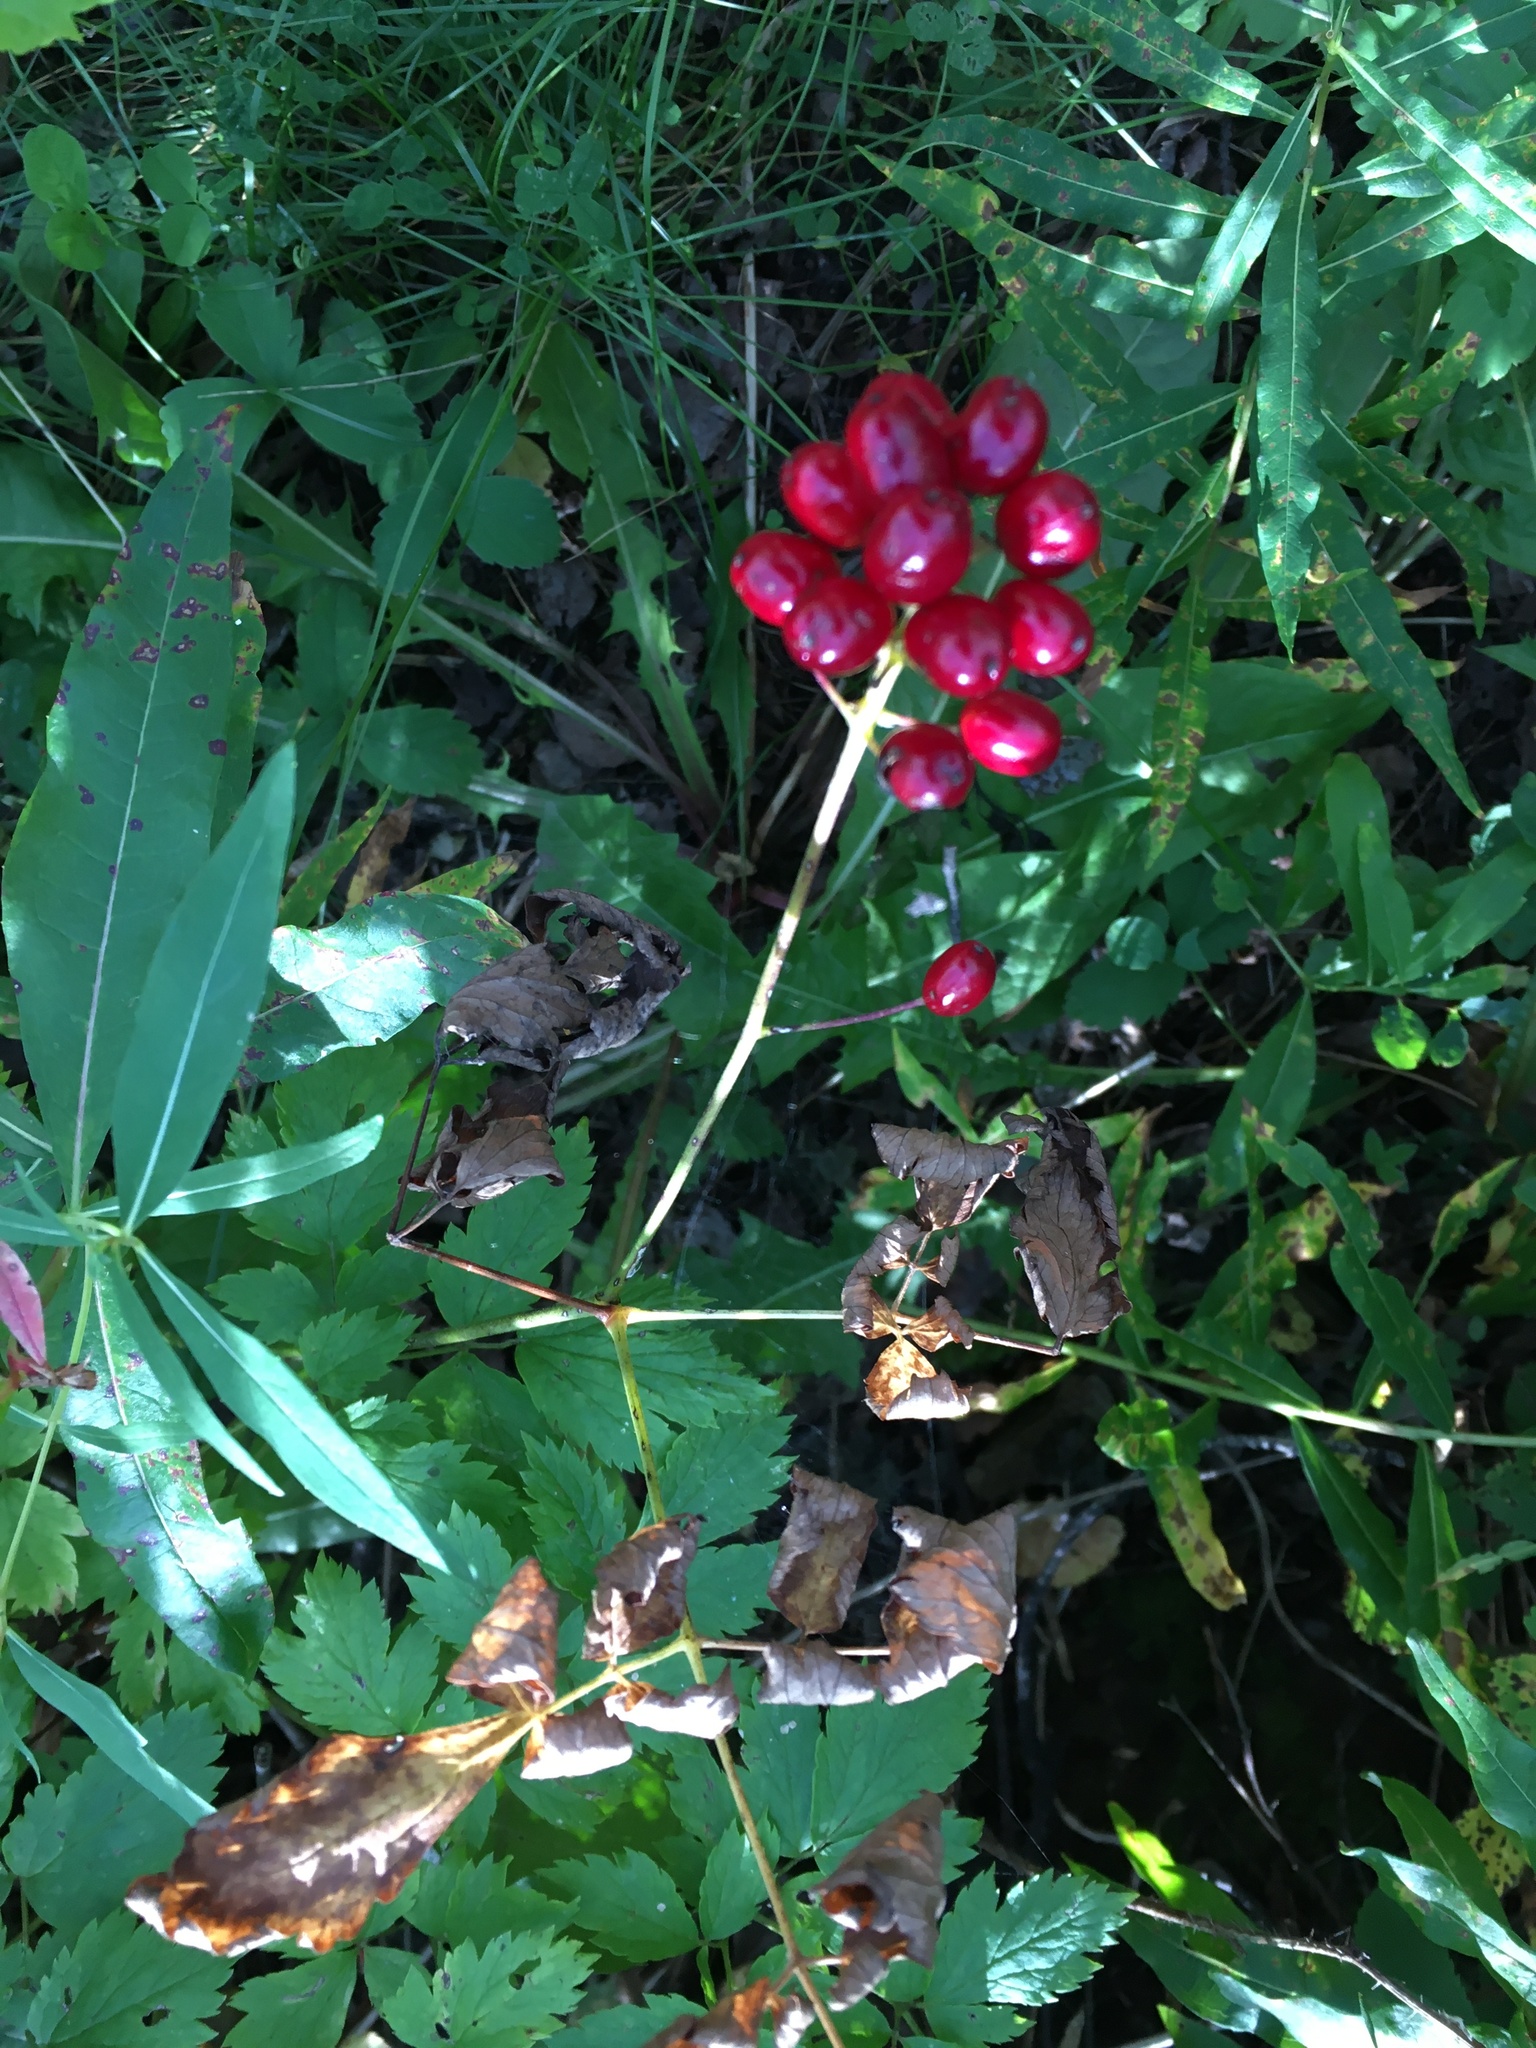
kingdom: Plantae
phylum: Tracheophyta
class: Magnoliopsida
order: Ranunculales
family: Ranunculaceae
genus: Actaea
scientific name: Actaea rubra
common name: Red baneberry
